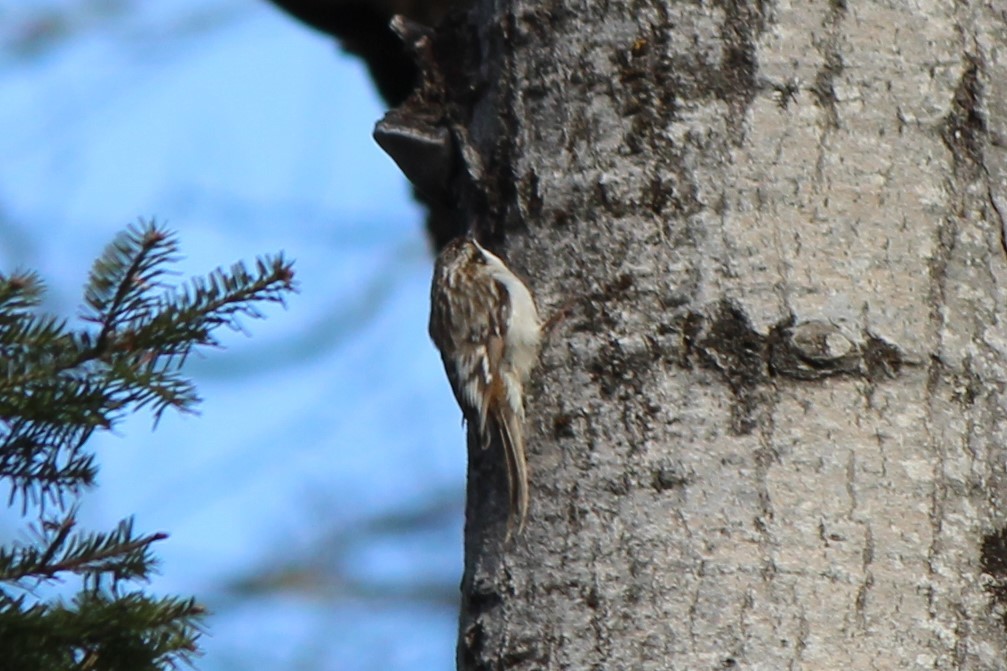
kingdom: Animalia
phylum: Chordata
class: Aves
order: Passeriformes
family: Certhiidae
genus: Certhia
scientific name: Certhia americana
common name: Brown creeper
